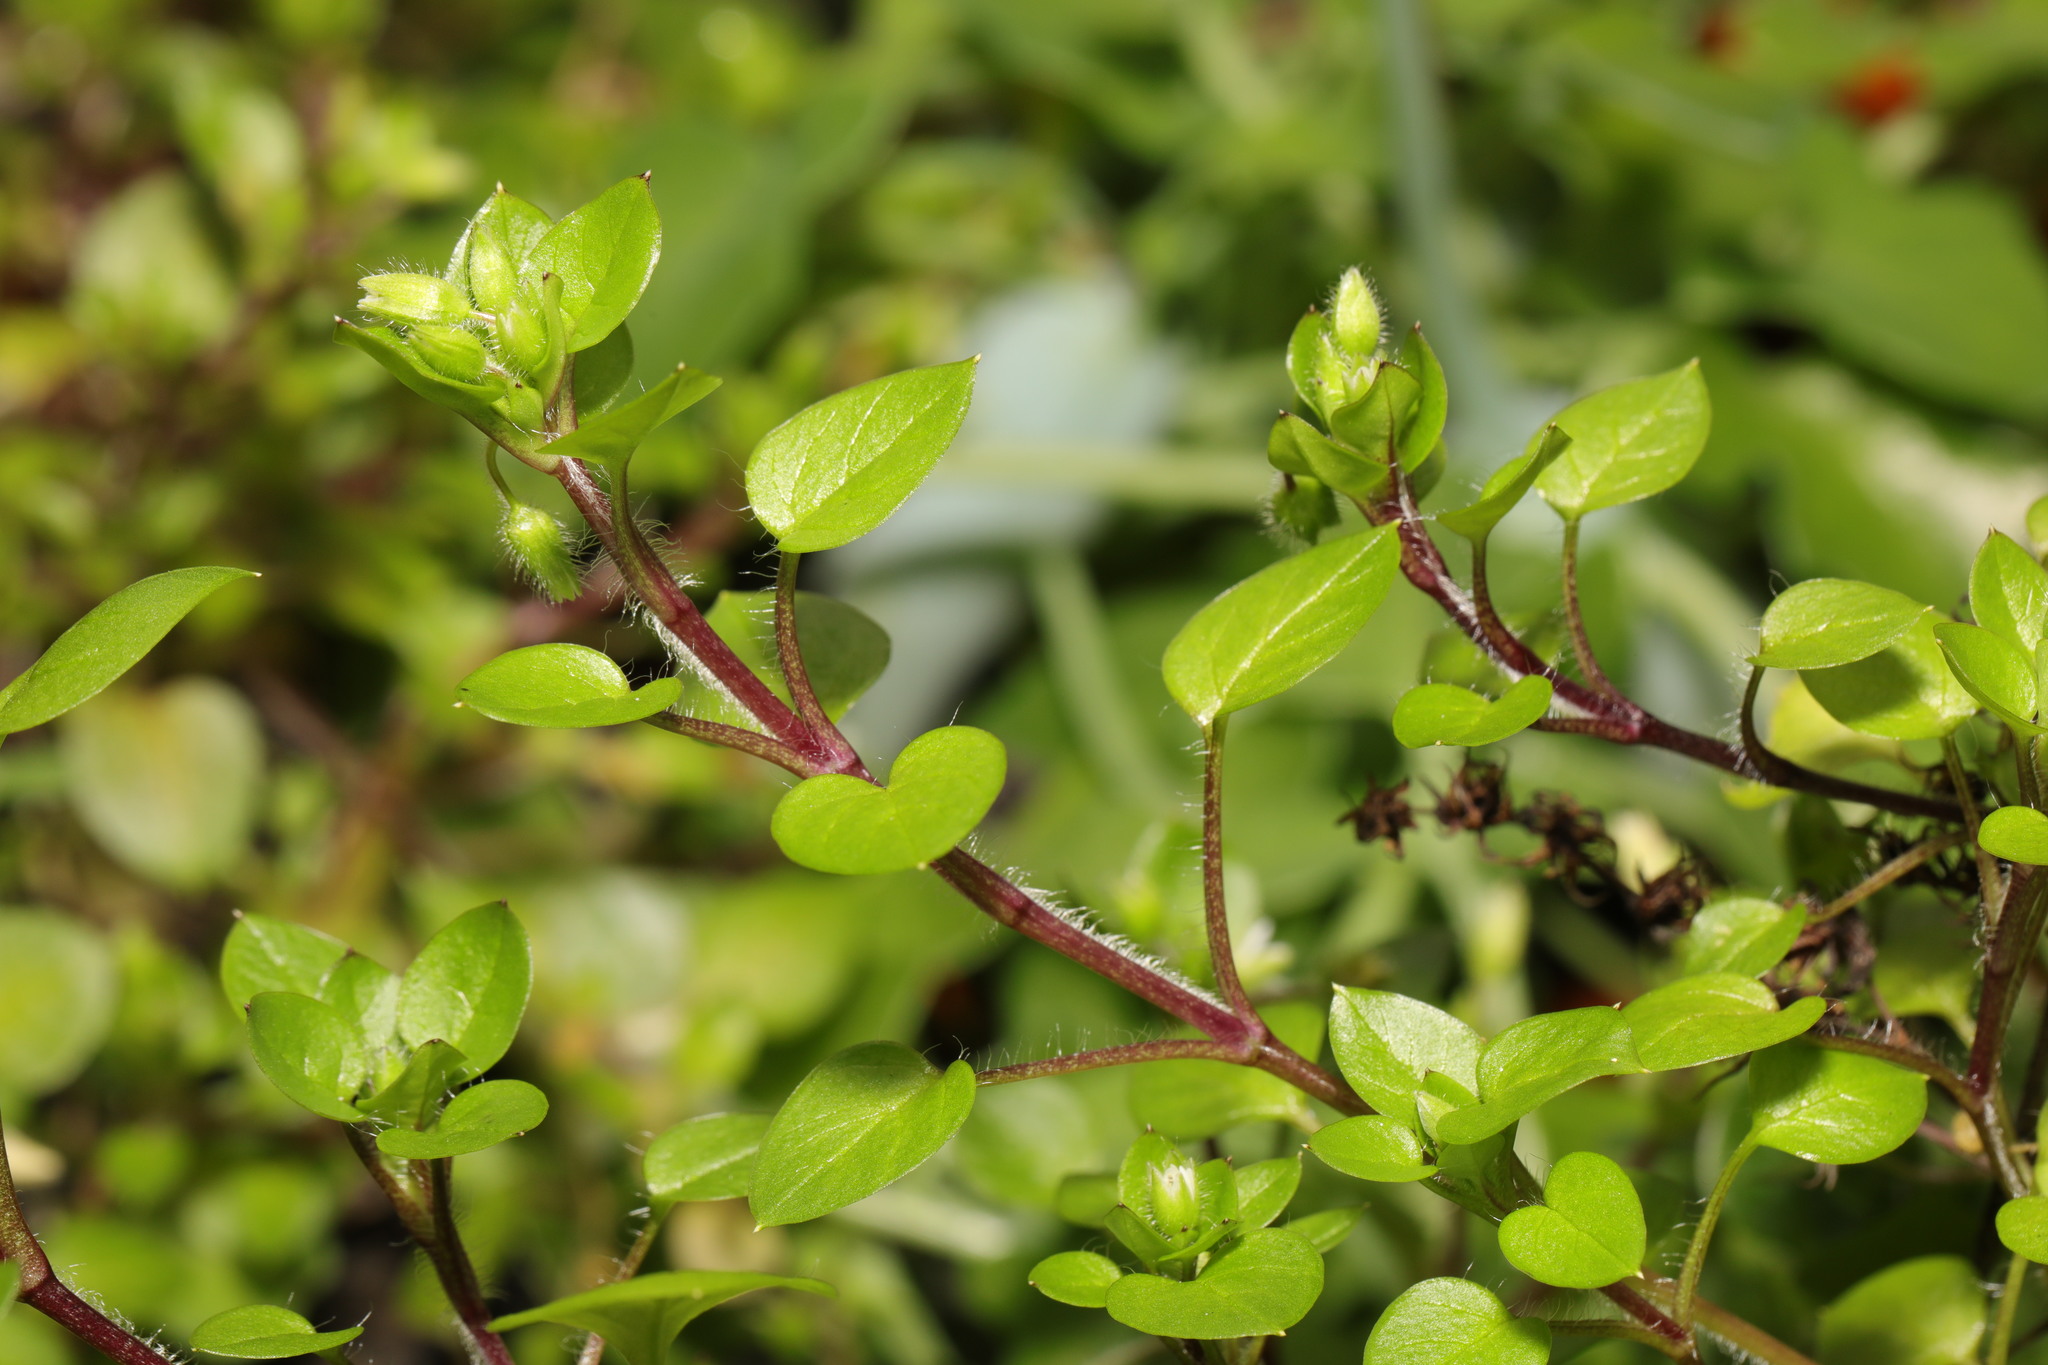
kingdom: Plantae
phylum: Tracheophyta
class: Magnoliopsida
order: Caryophyllales
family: Caryophyllaceae
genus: Stellaria
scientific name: Stellaria media
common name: Common chickweed
